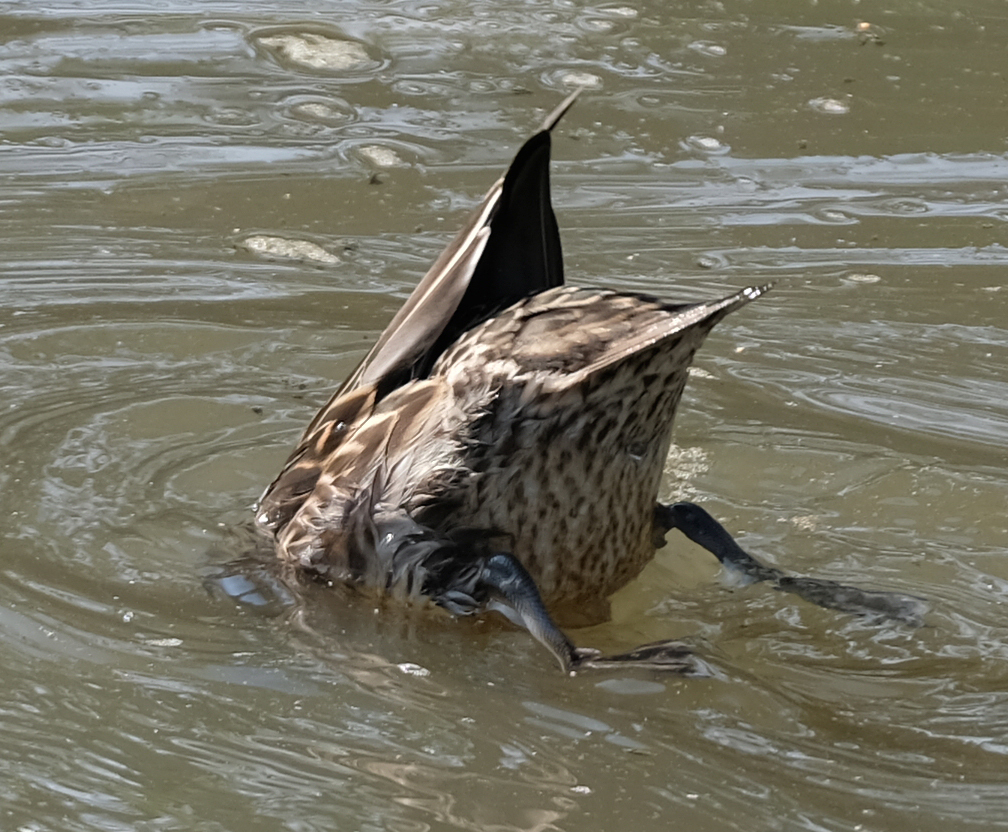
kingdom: Animalia
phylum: Chordata
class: Aves
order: Anseriformes
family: Anatidae
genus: Anas
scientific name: Anas crecca
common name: Eurasian teal
